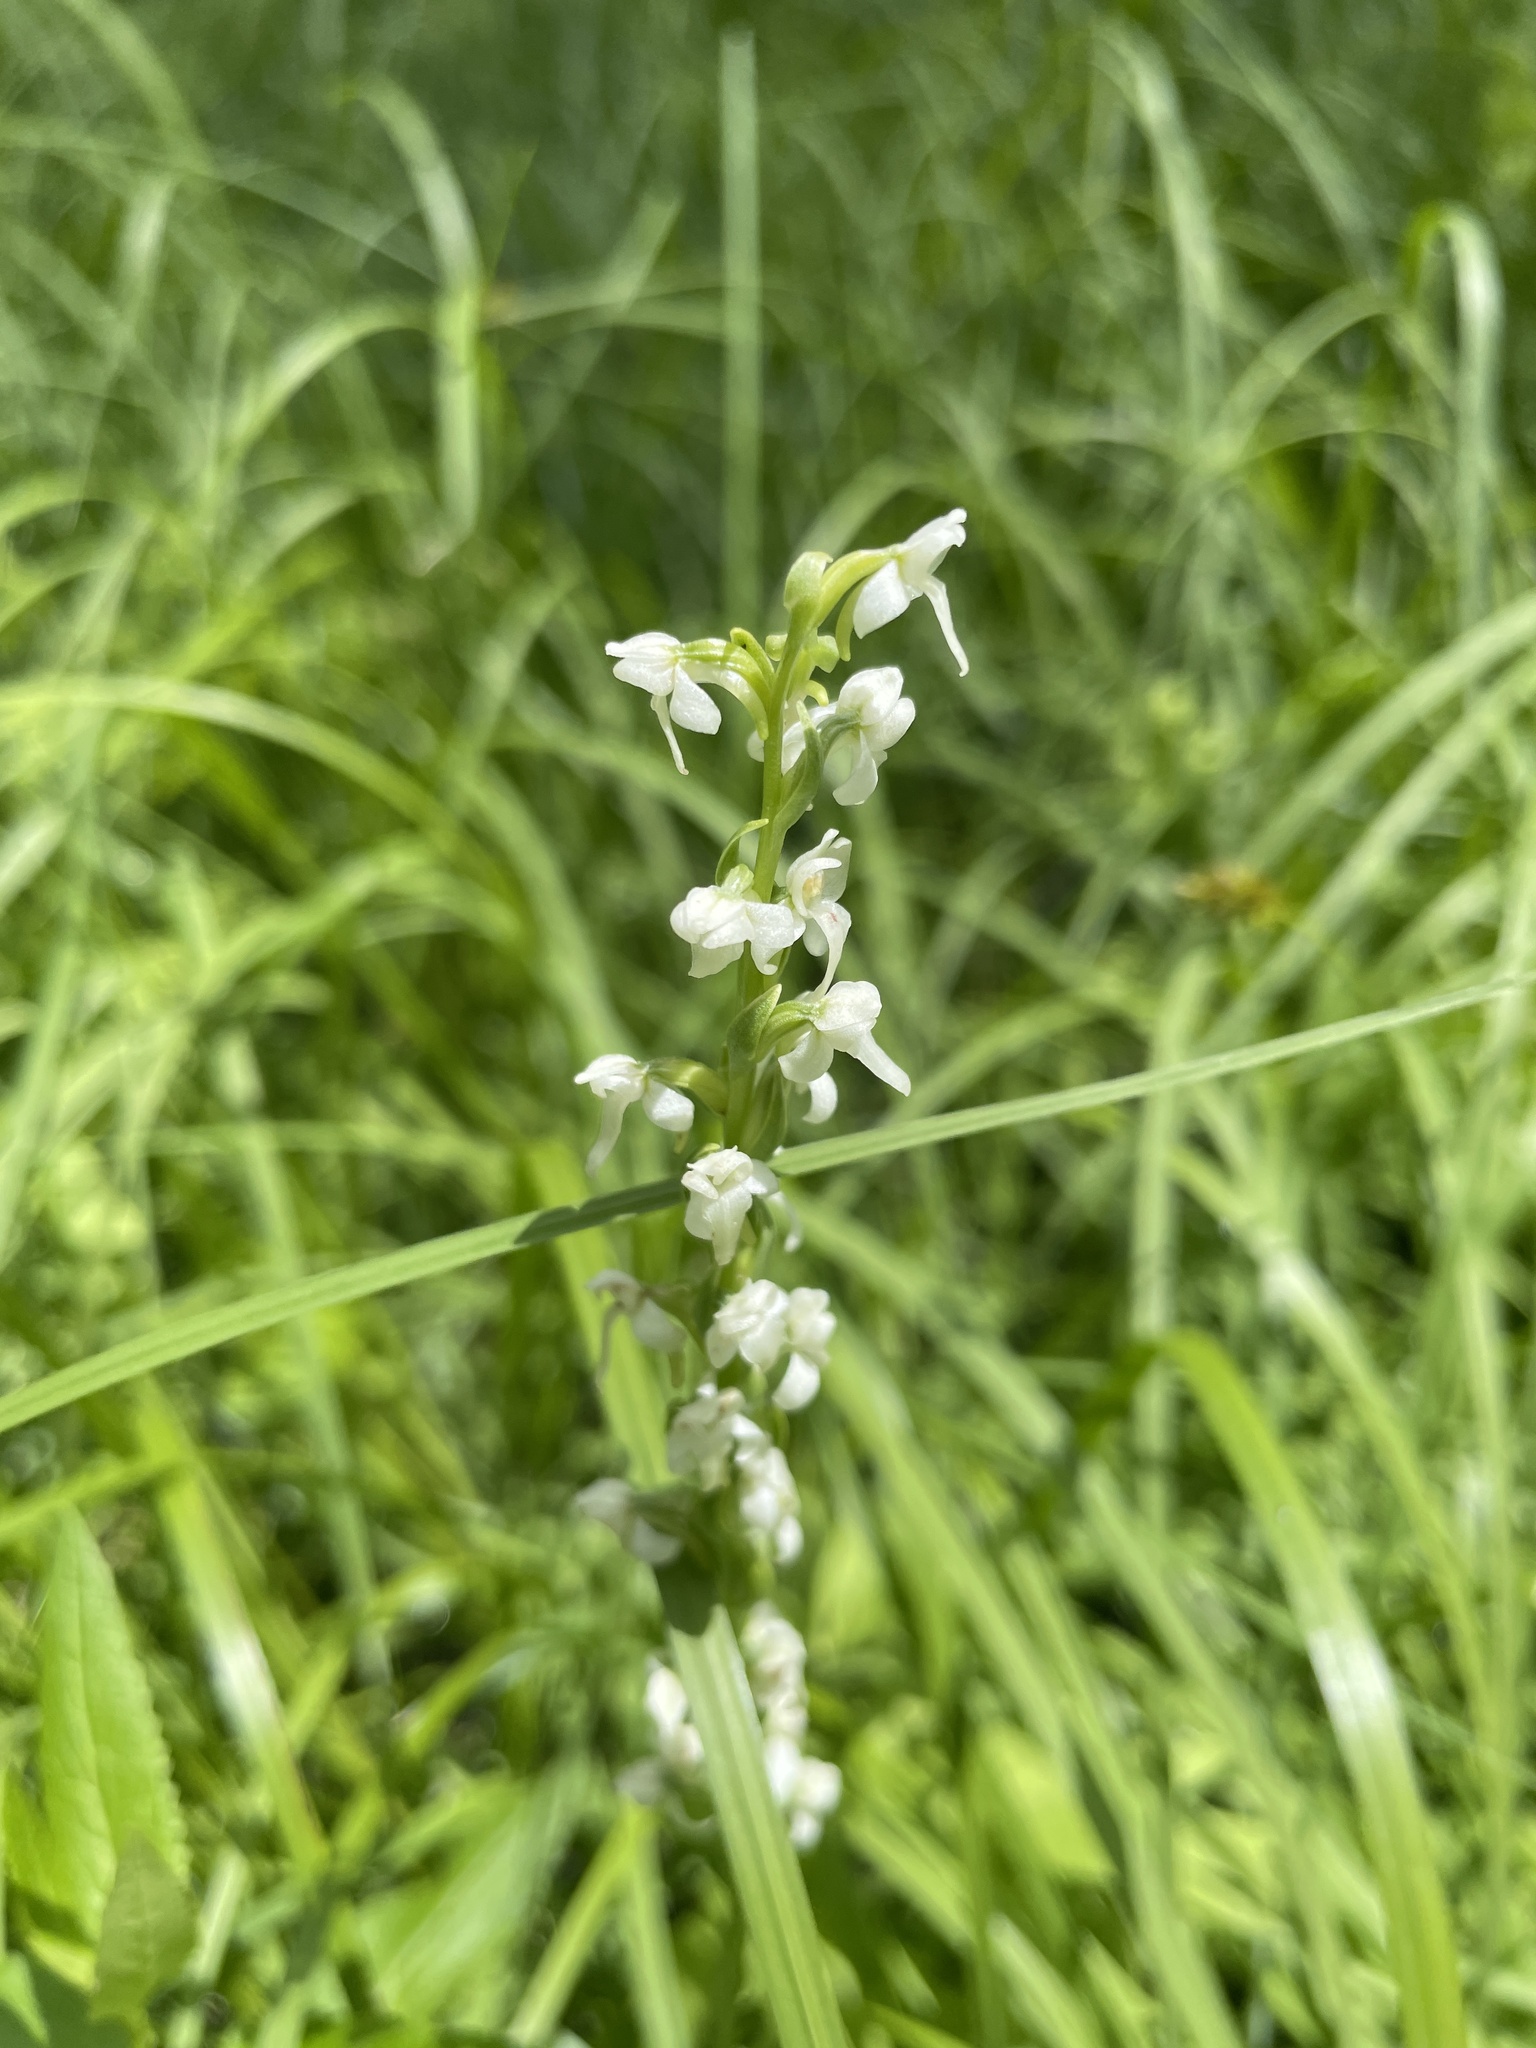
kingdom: Plantae
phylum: Tracheophyta
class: Liliopsida
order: Asparagales
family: Orchidaceae
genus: Platanthera
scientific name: Platanthera dilatata
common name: Bog candles
